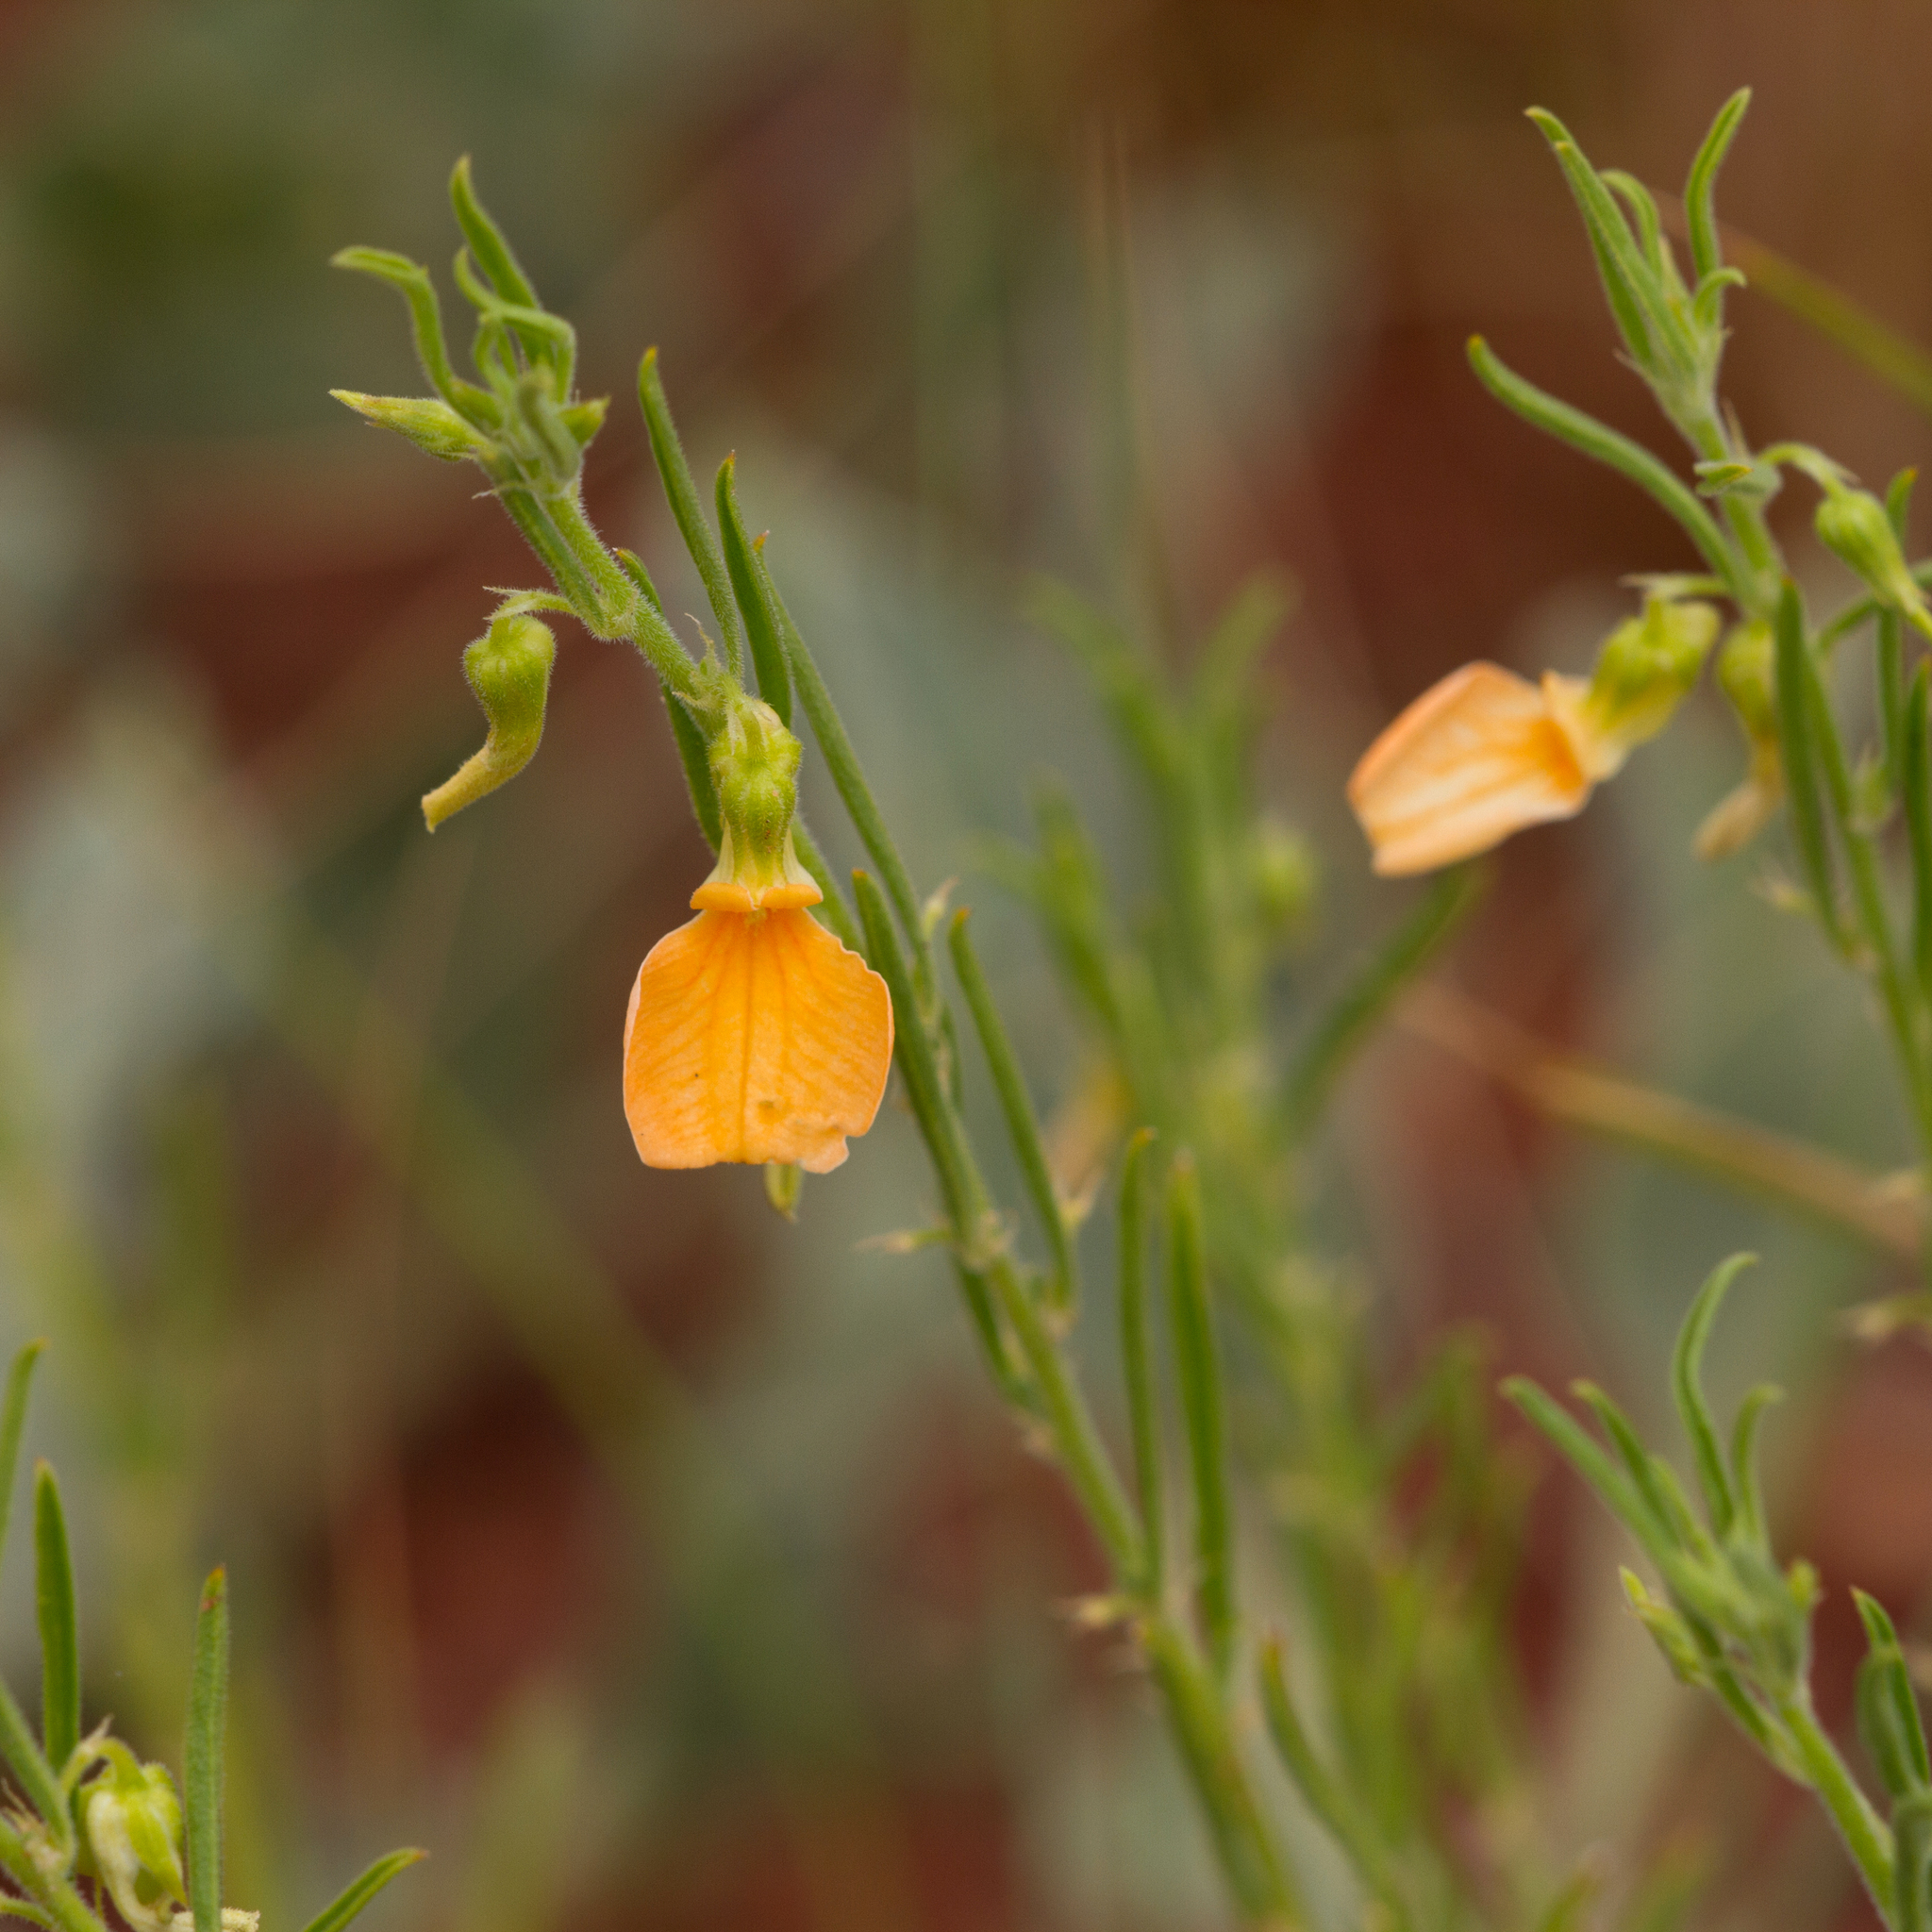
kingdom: Plantae
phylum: Tracheophyta
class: Magnoliopsida
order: Malpighiales
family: Violaceae
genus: Pigea
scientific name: Pigea aurantiaca
